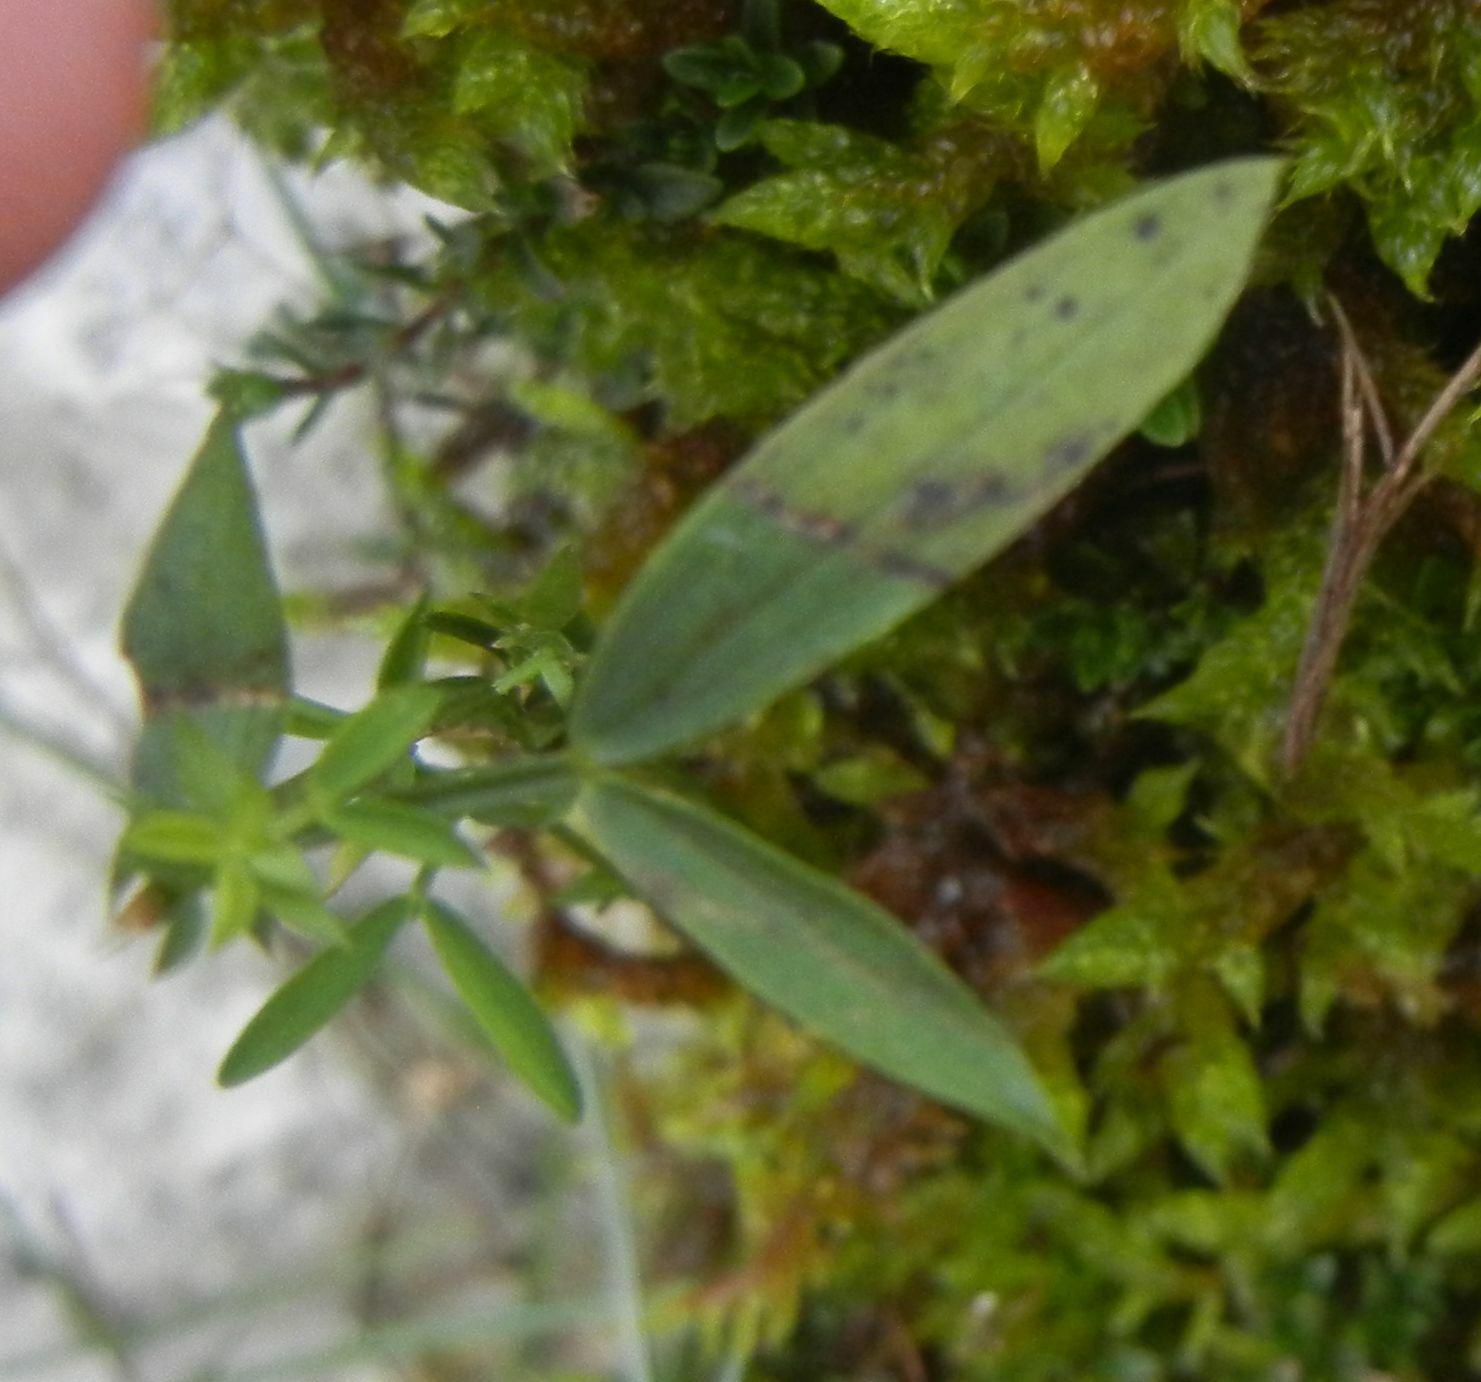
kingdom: Plantae
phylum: Tracheophyta
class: Magnoliopsida
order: Fabales
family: Fabaceae
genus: Lathyrus
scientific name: Lathyrus linifolius
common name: Bitter-vetch
